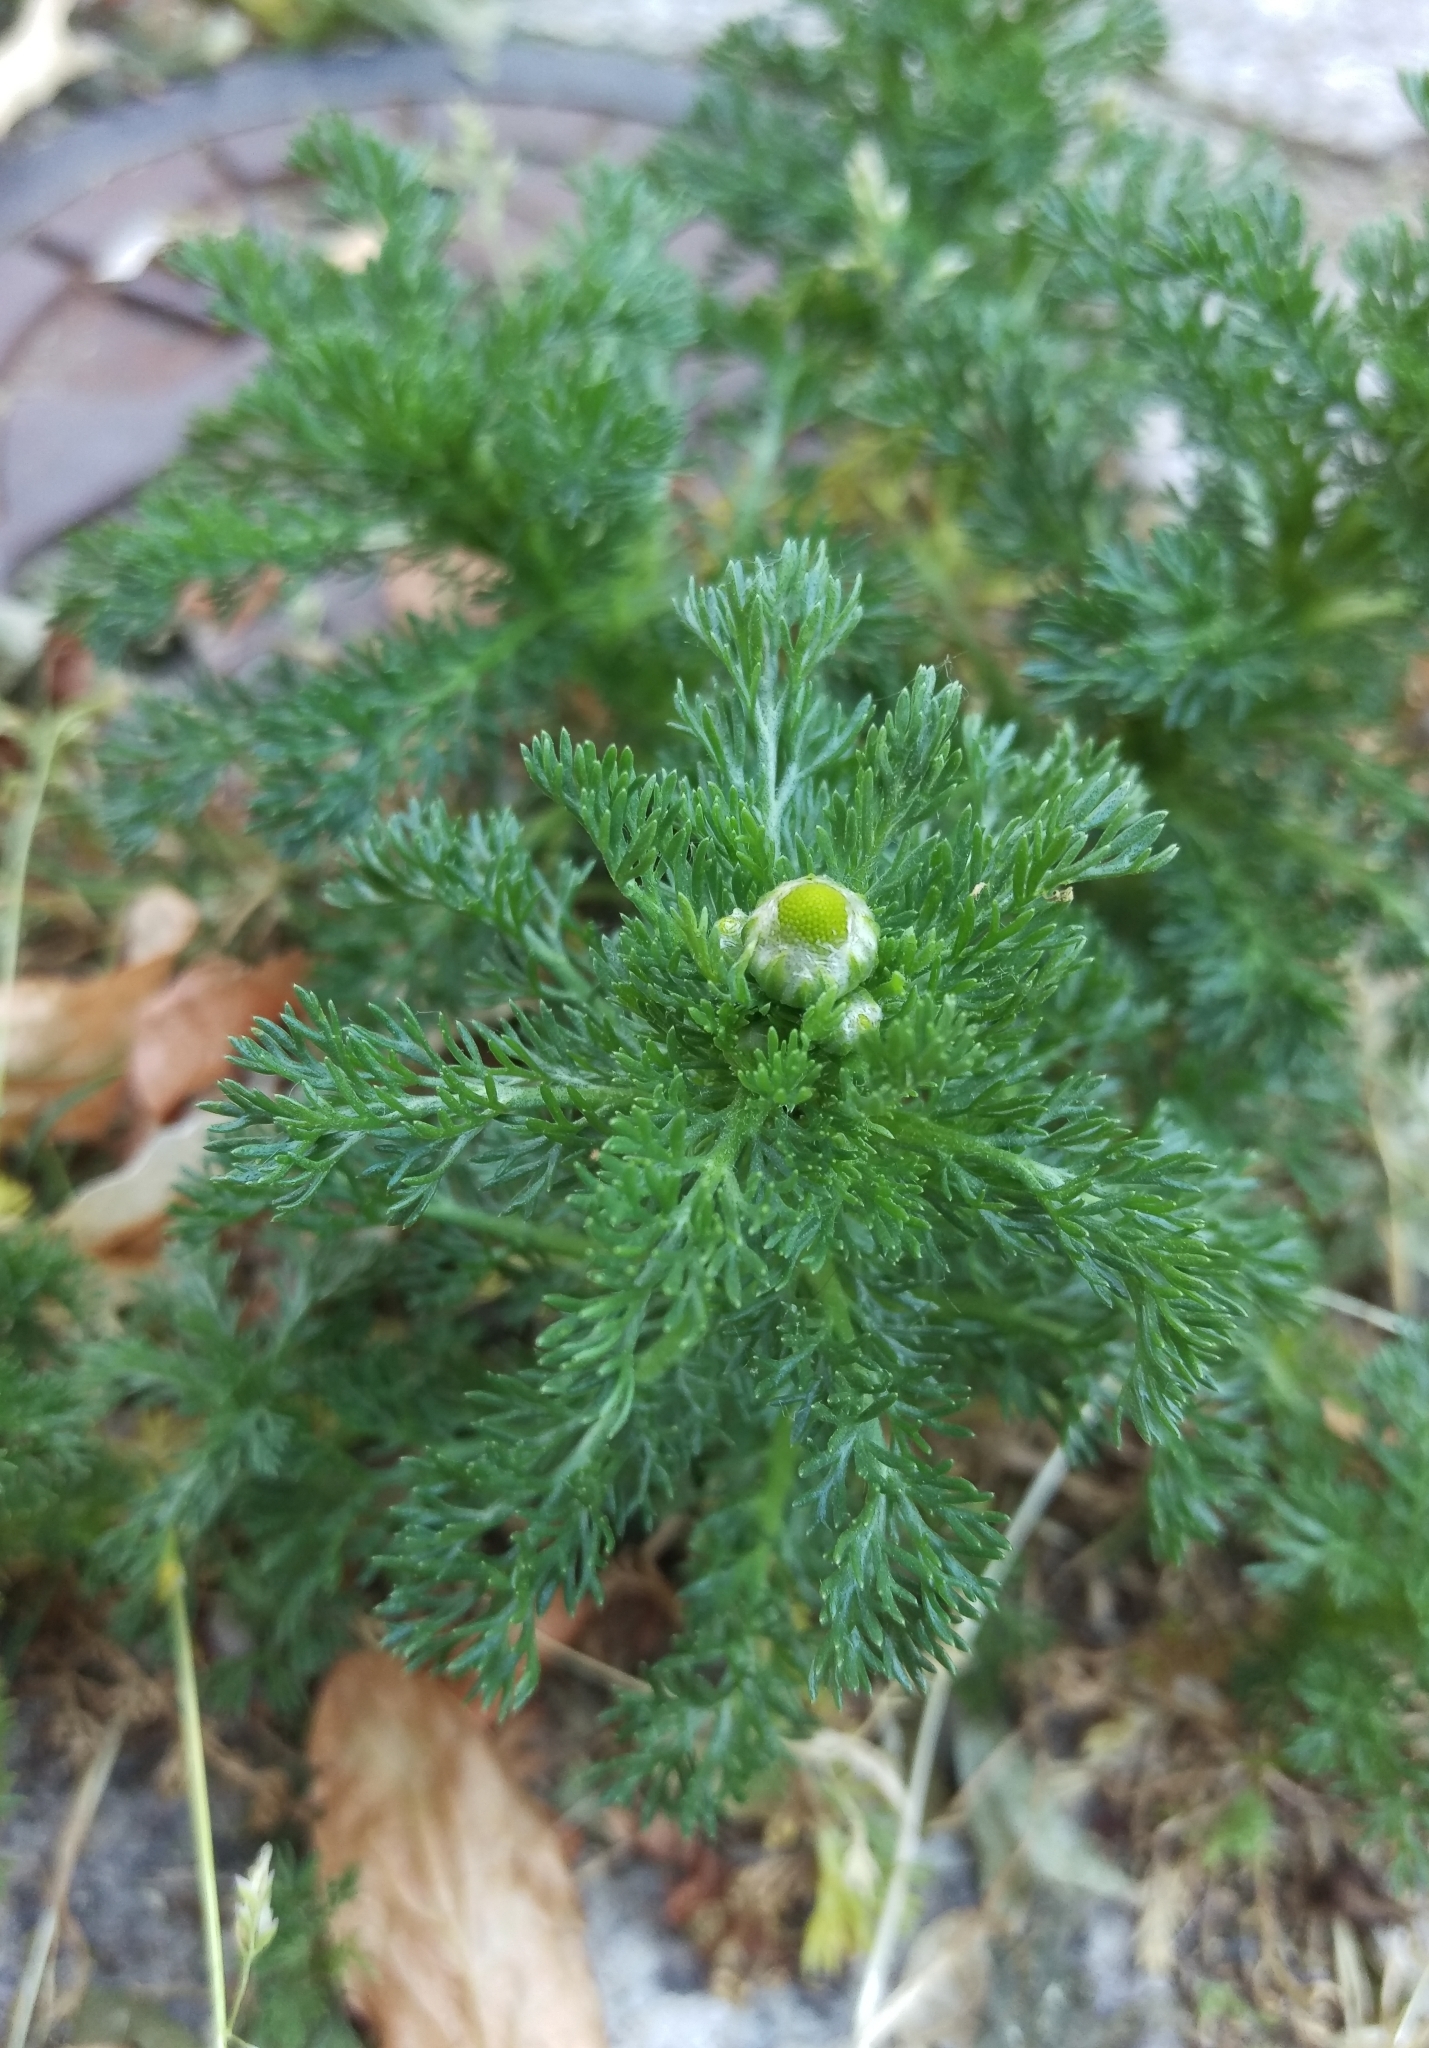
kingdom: Plantae
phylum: Tracheophyta
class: Magnoliopsida
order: Asterales
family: Asteraceae
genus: Matricaria
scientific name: Matricaria discoidea
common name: Disc mayweed
